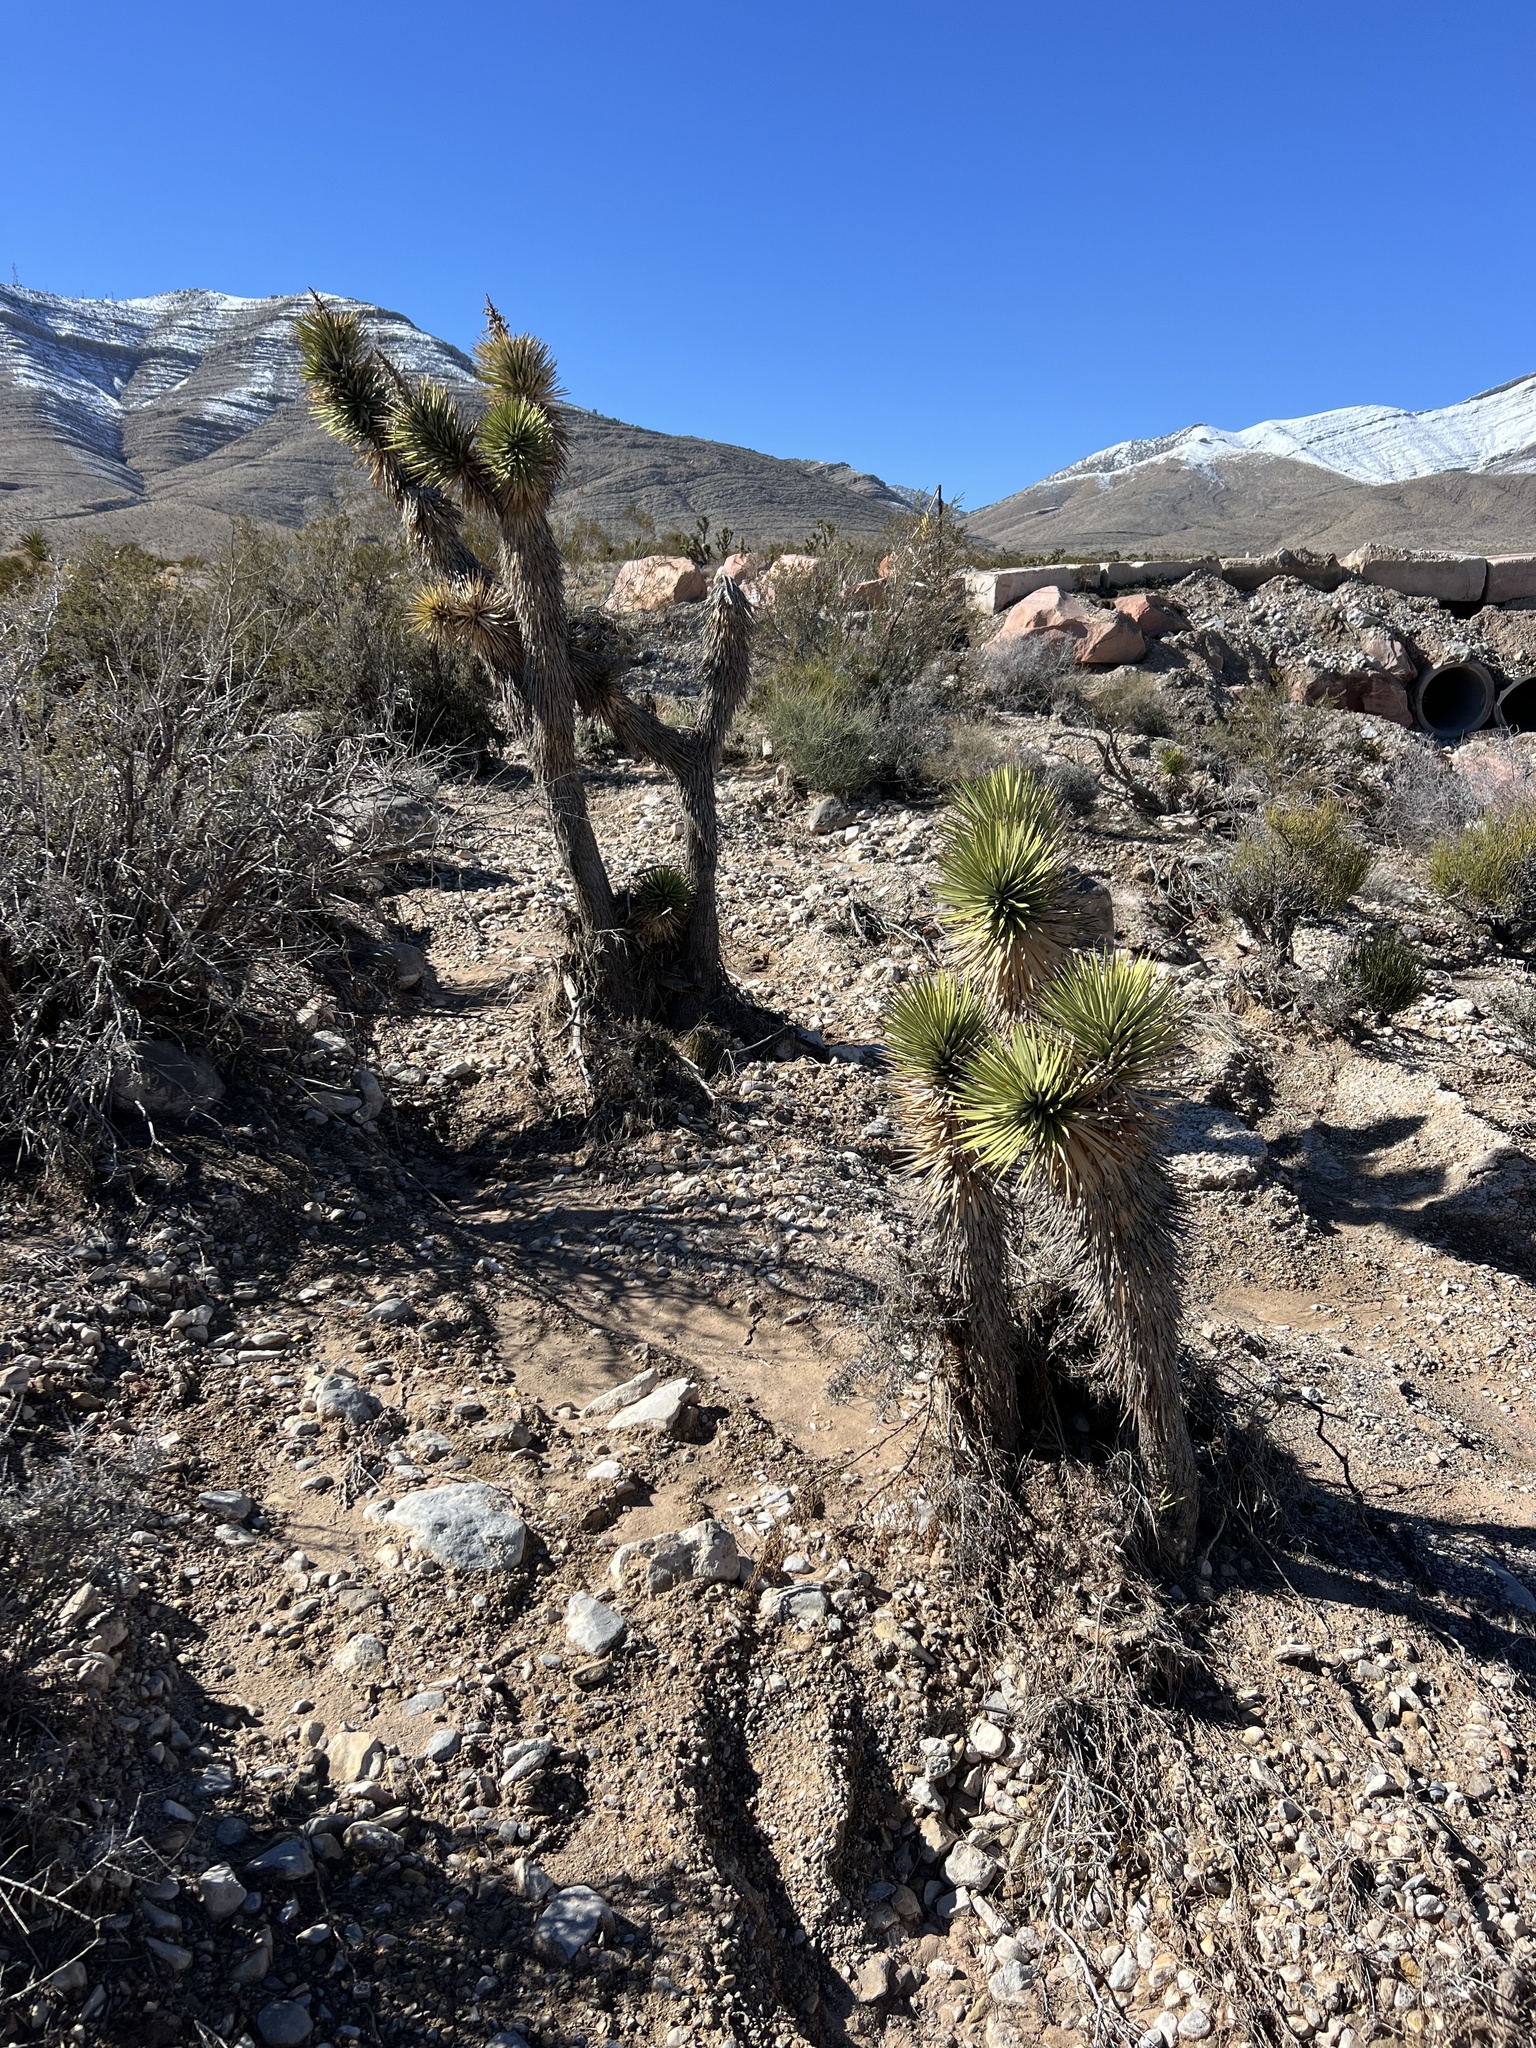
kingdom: Plantae
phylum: Tracheophyta
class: Liliopsida
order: Asparagales
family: Asparagaceae
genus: Yucca
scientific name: Yucca brevifolia
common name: Joshua tree
